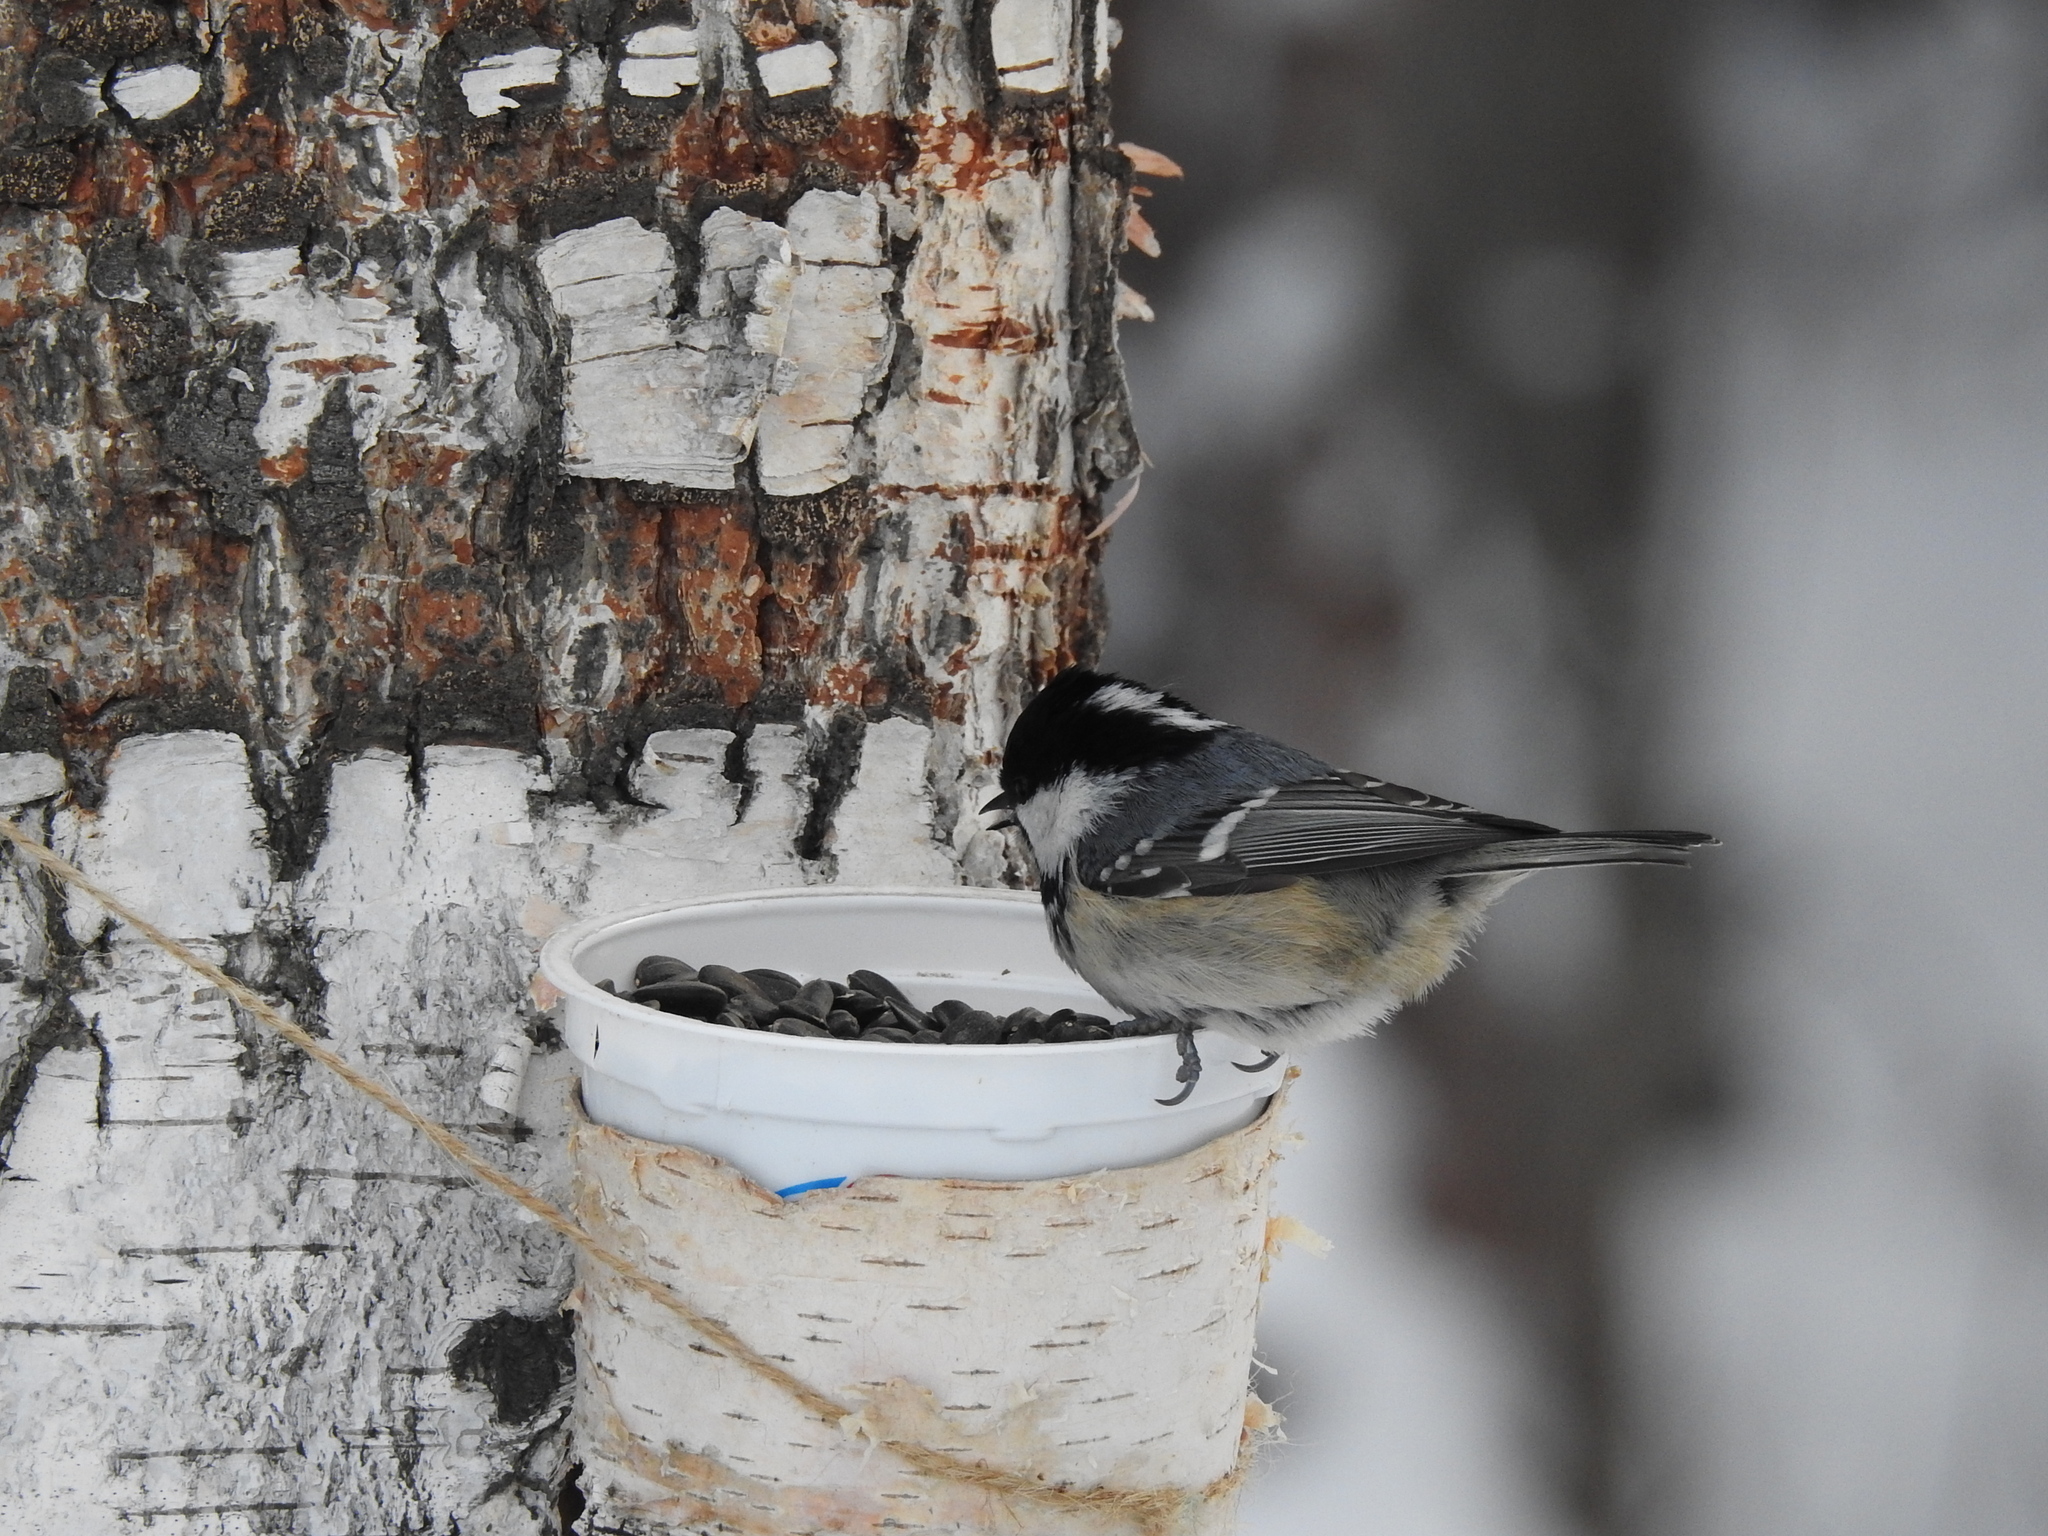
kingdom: Animalia
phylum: Chordata
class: Aves
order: Passeriformes
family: Paridae
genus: Periparus
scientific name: Periparus ater
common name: Coal tit
